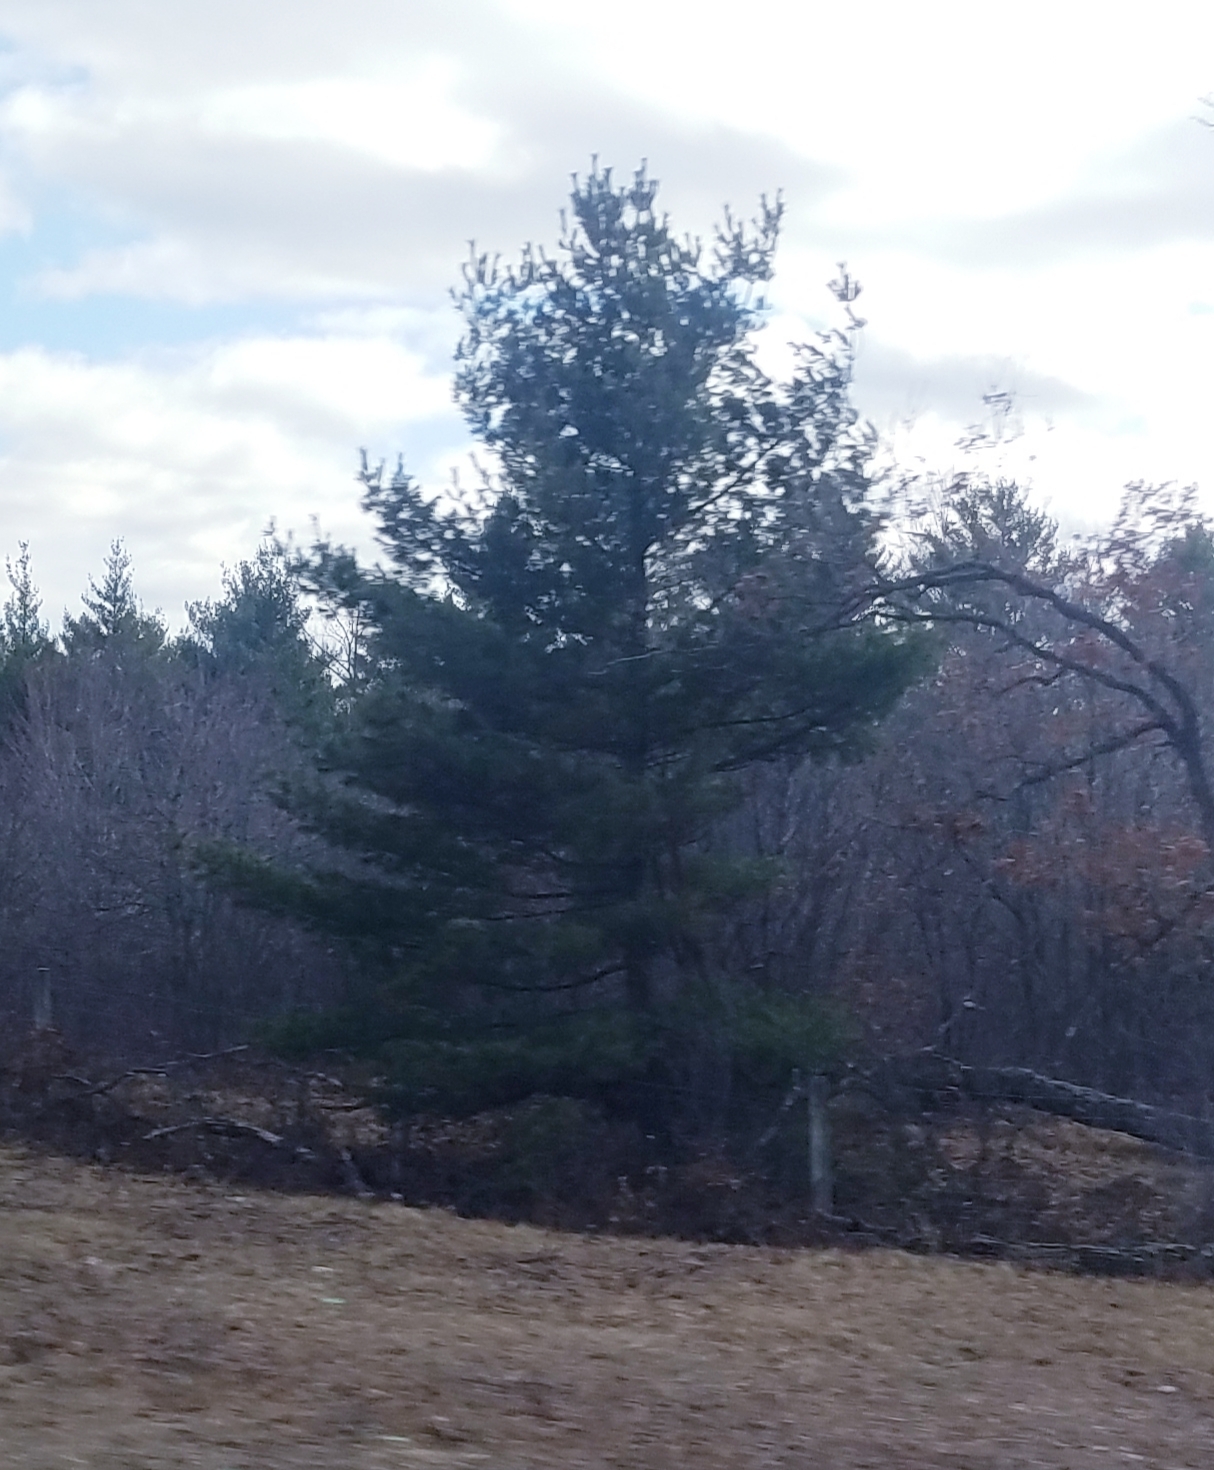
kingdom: Plantae
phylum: Tracheophyta
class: Pinopsida
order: Pinales
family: Pinaceae
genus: Pinus
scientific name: Pinus strobus
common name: Weymouth pine
